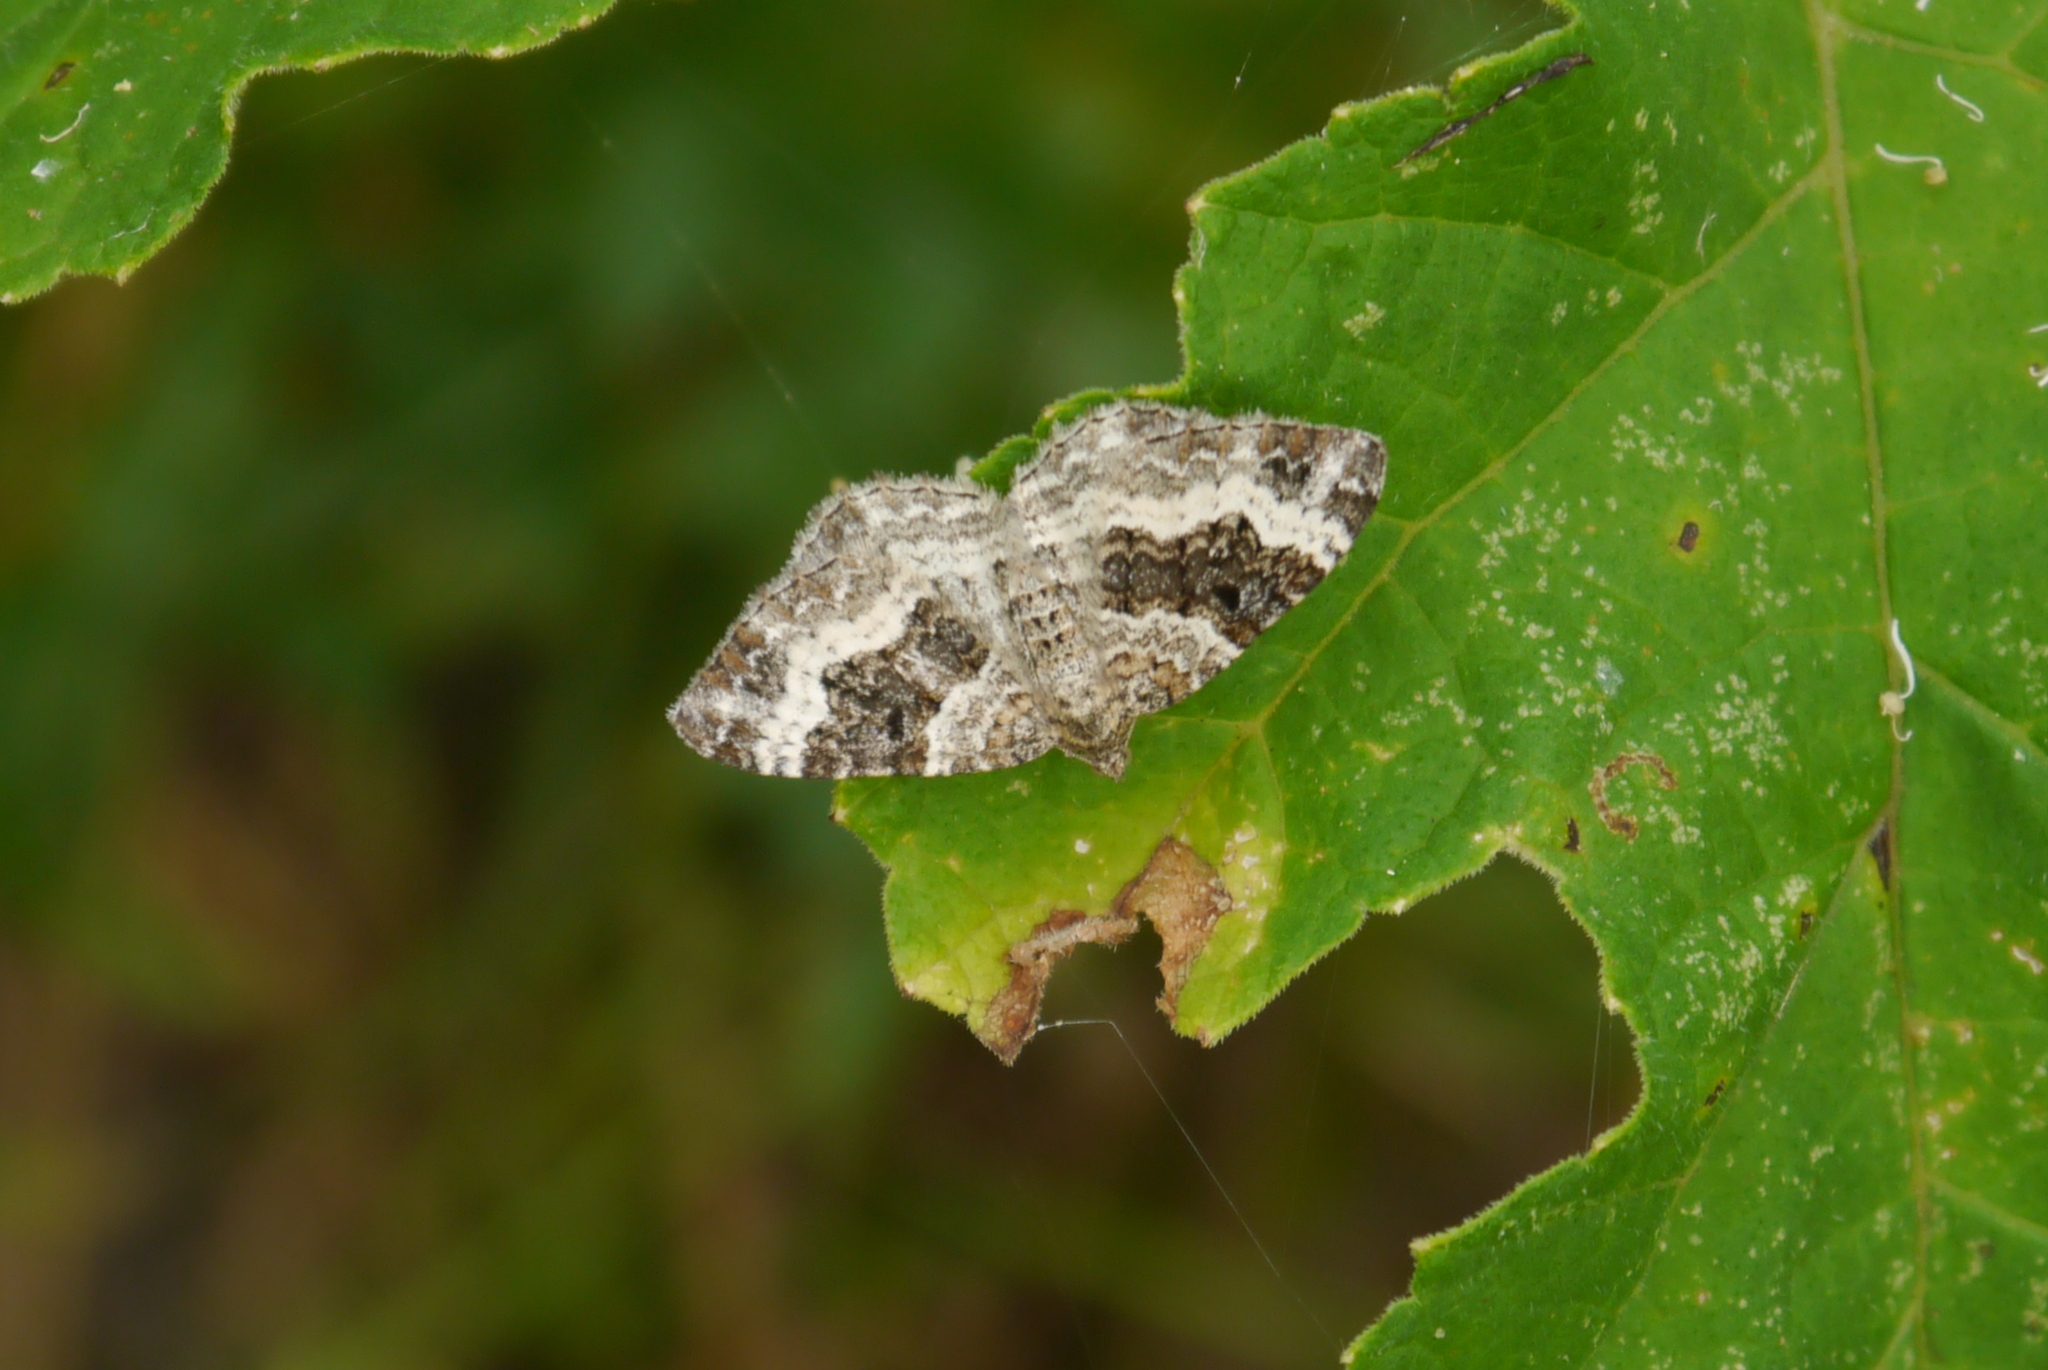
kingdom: Animalia
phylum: Arthropoda
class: Insecta
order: Lepidoptera
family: Geometridae
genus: Epirrhoe
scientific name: Epirrhoe alternata
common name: Common carpet
